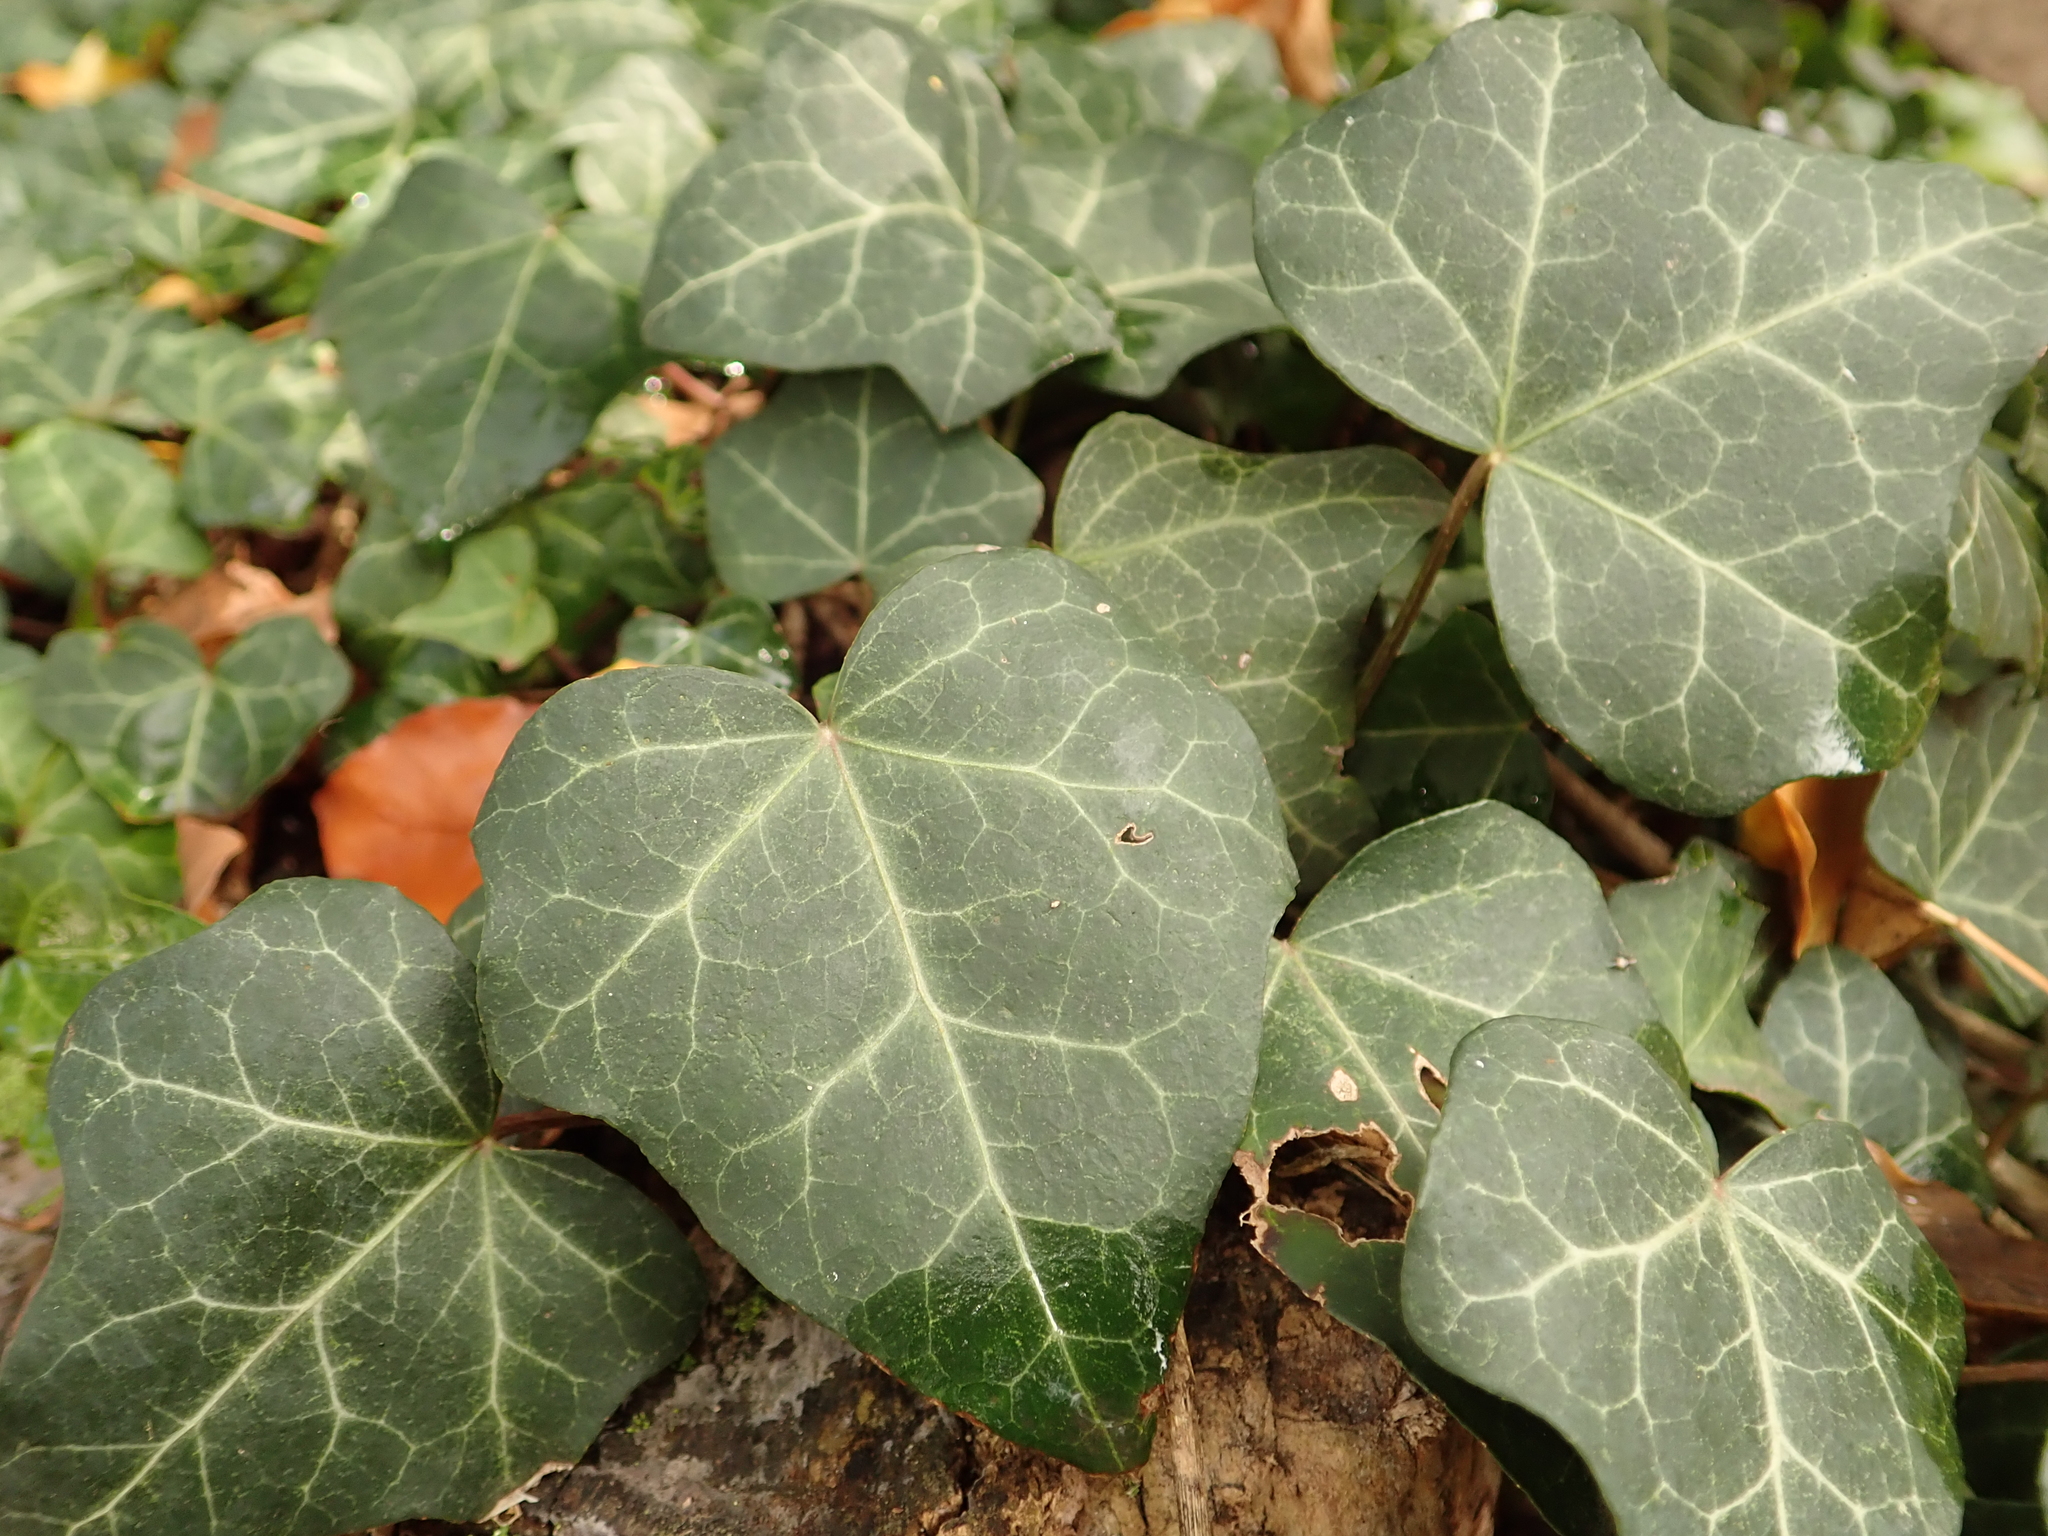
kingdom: Plantae
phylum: Tracheophyta
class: Magnoliopsida
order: Apiales
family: Araliaceae
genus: Hedera
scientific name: Hedera helix
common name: Ivy
